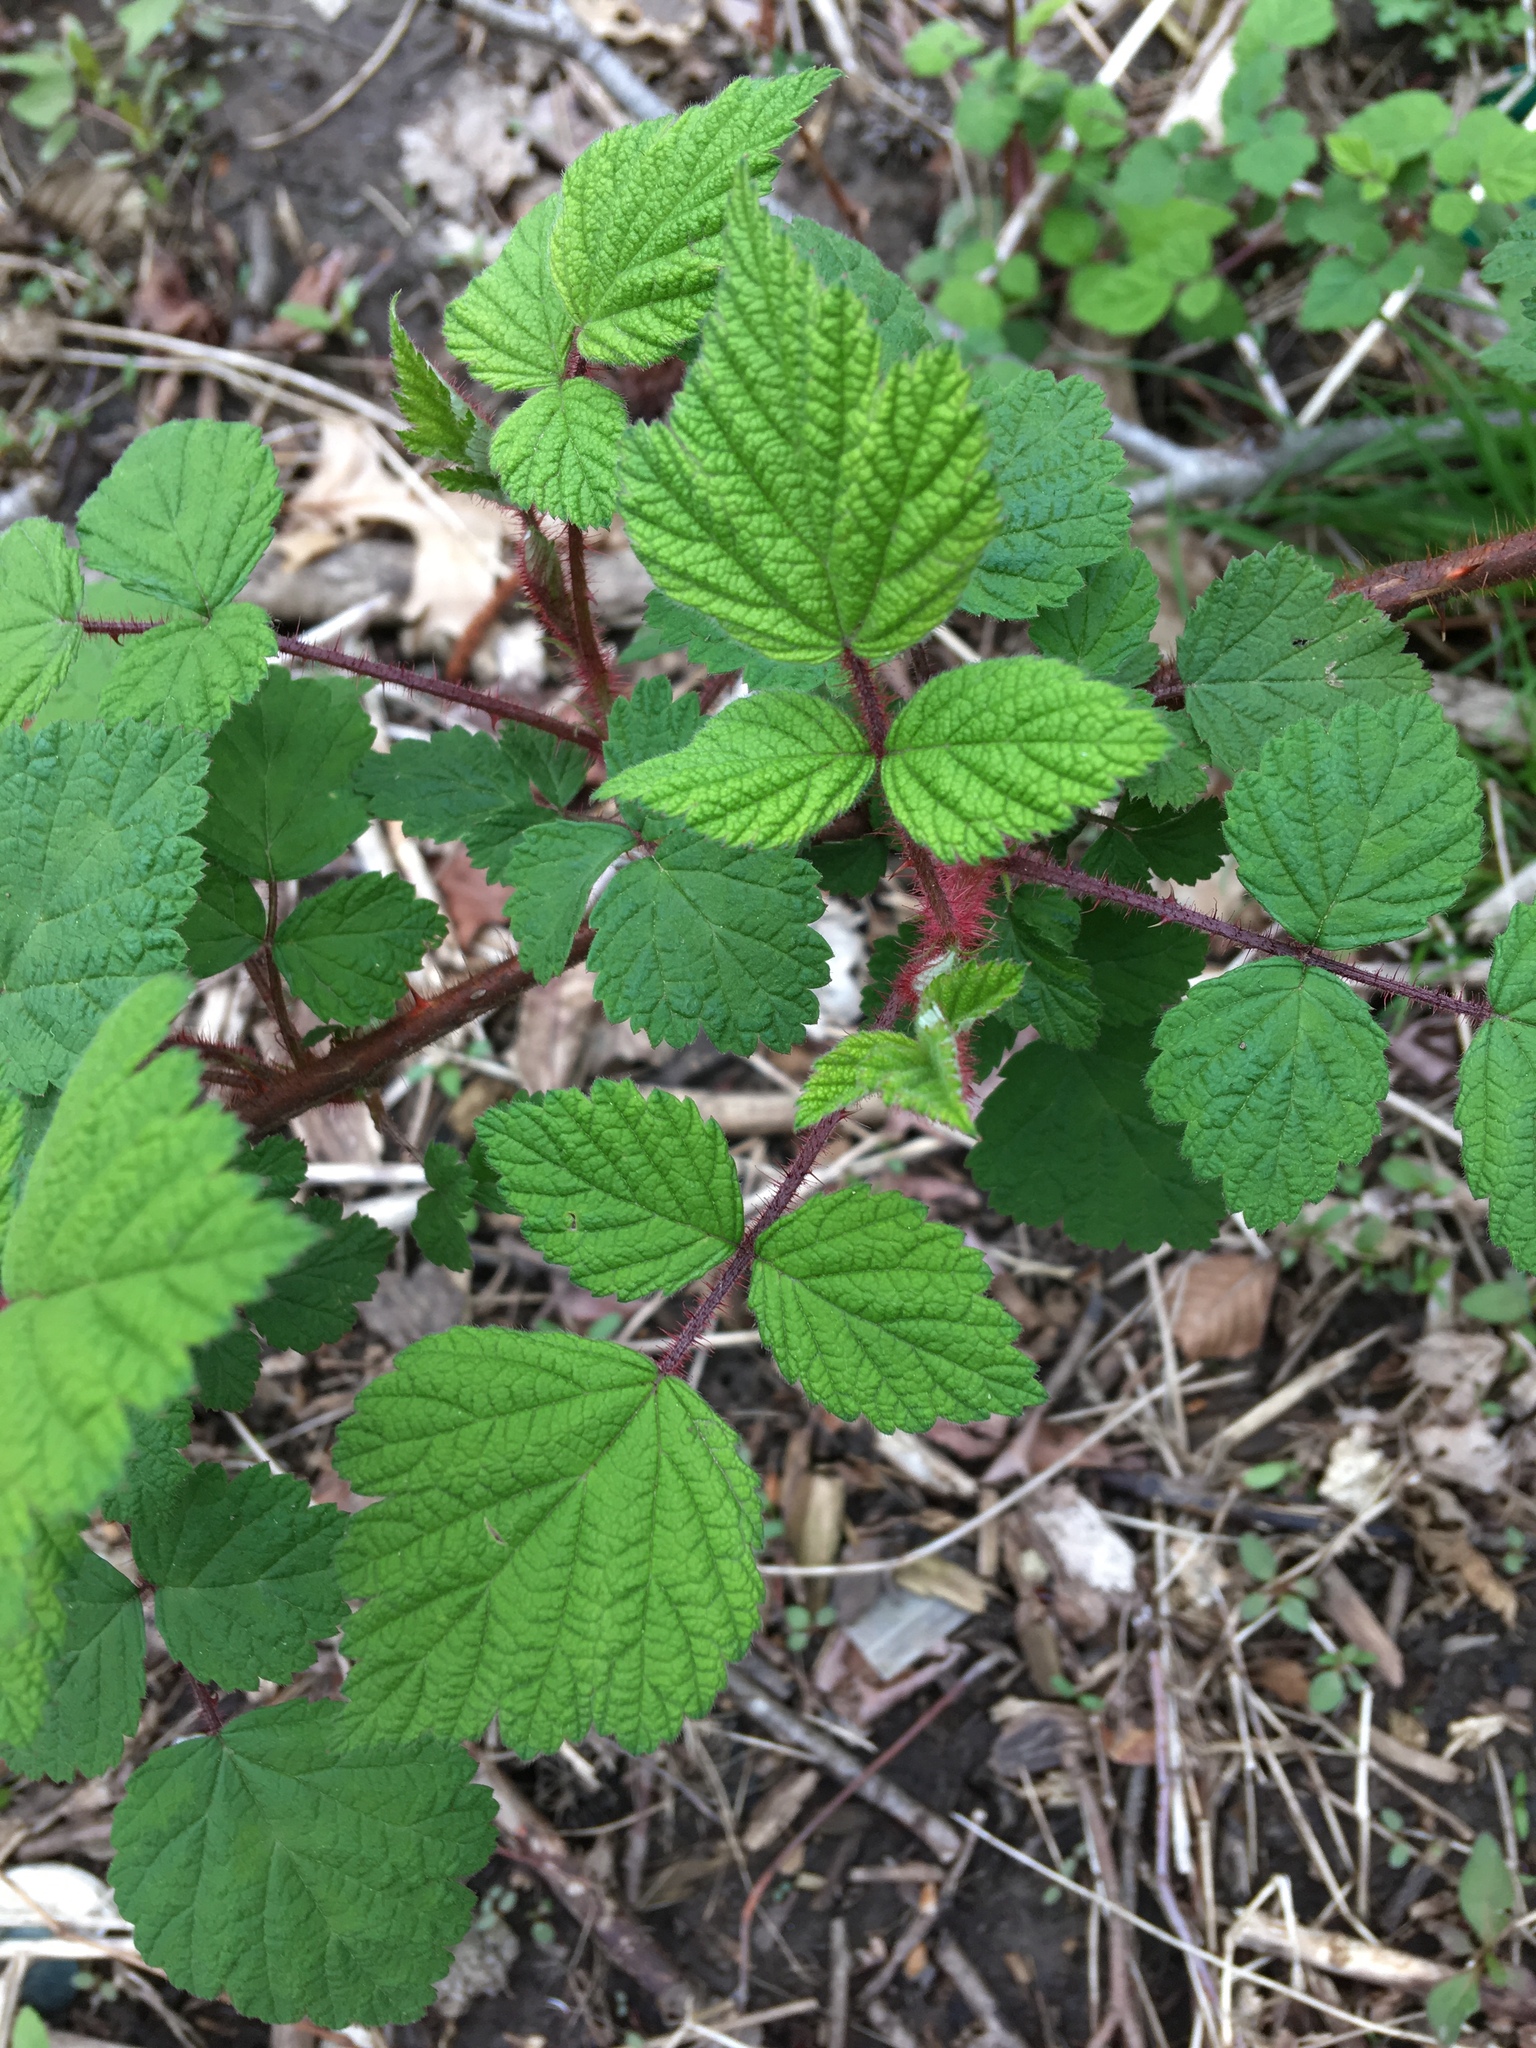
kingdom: Plantae
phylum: Tracheophyta
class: Magnoliopsida
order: Rosales
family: Rosaceae
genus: Rubus
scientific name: Rubus phoenicolasius
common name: Japanese wineberry
